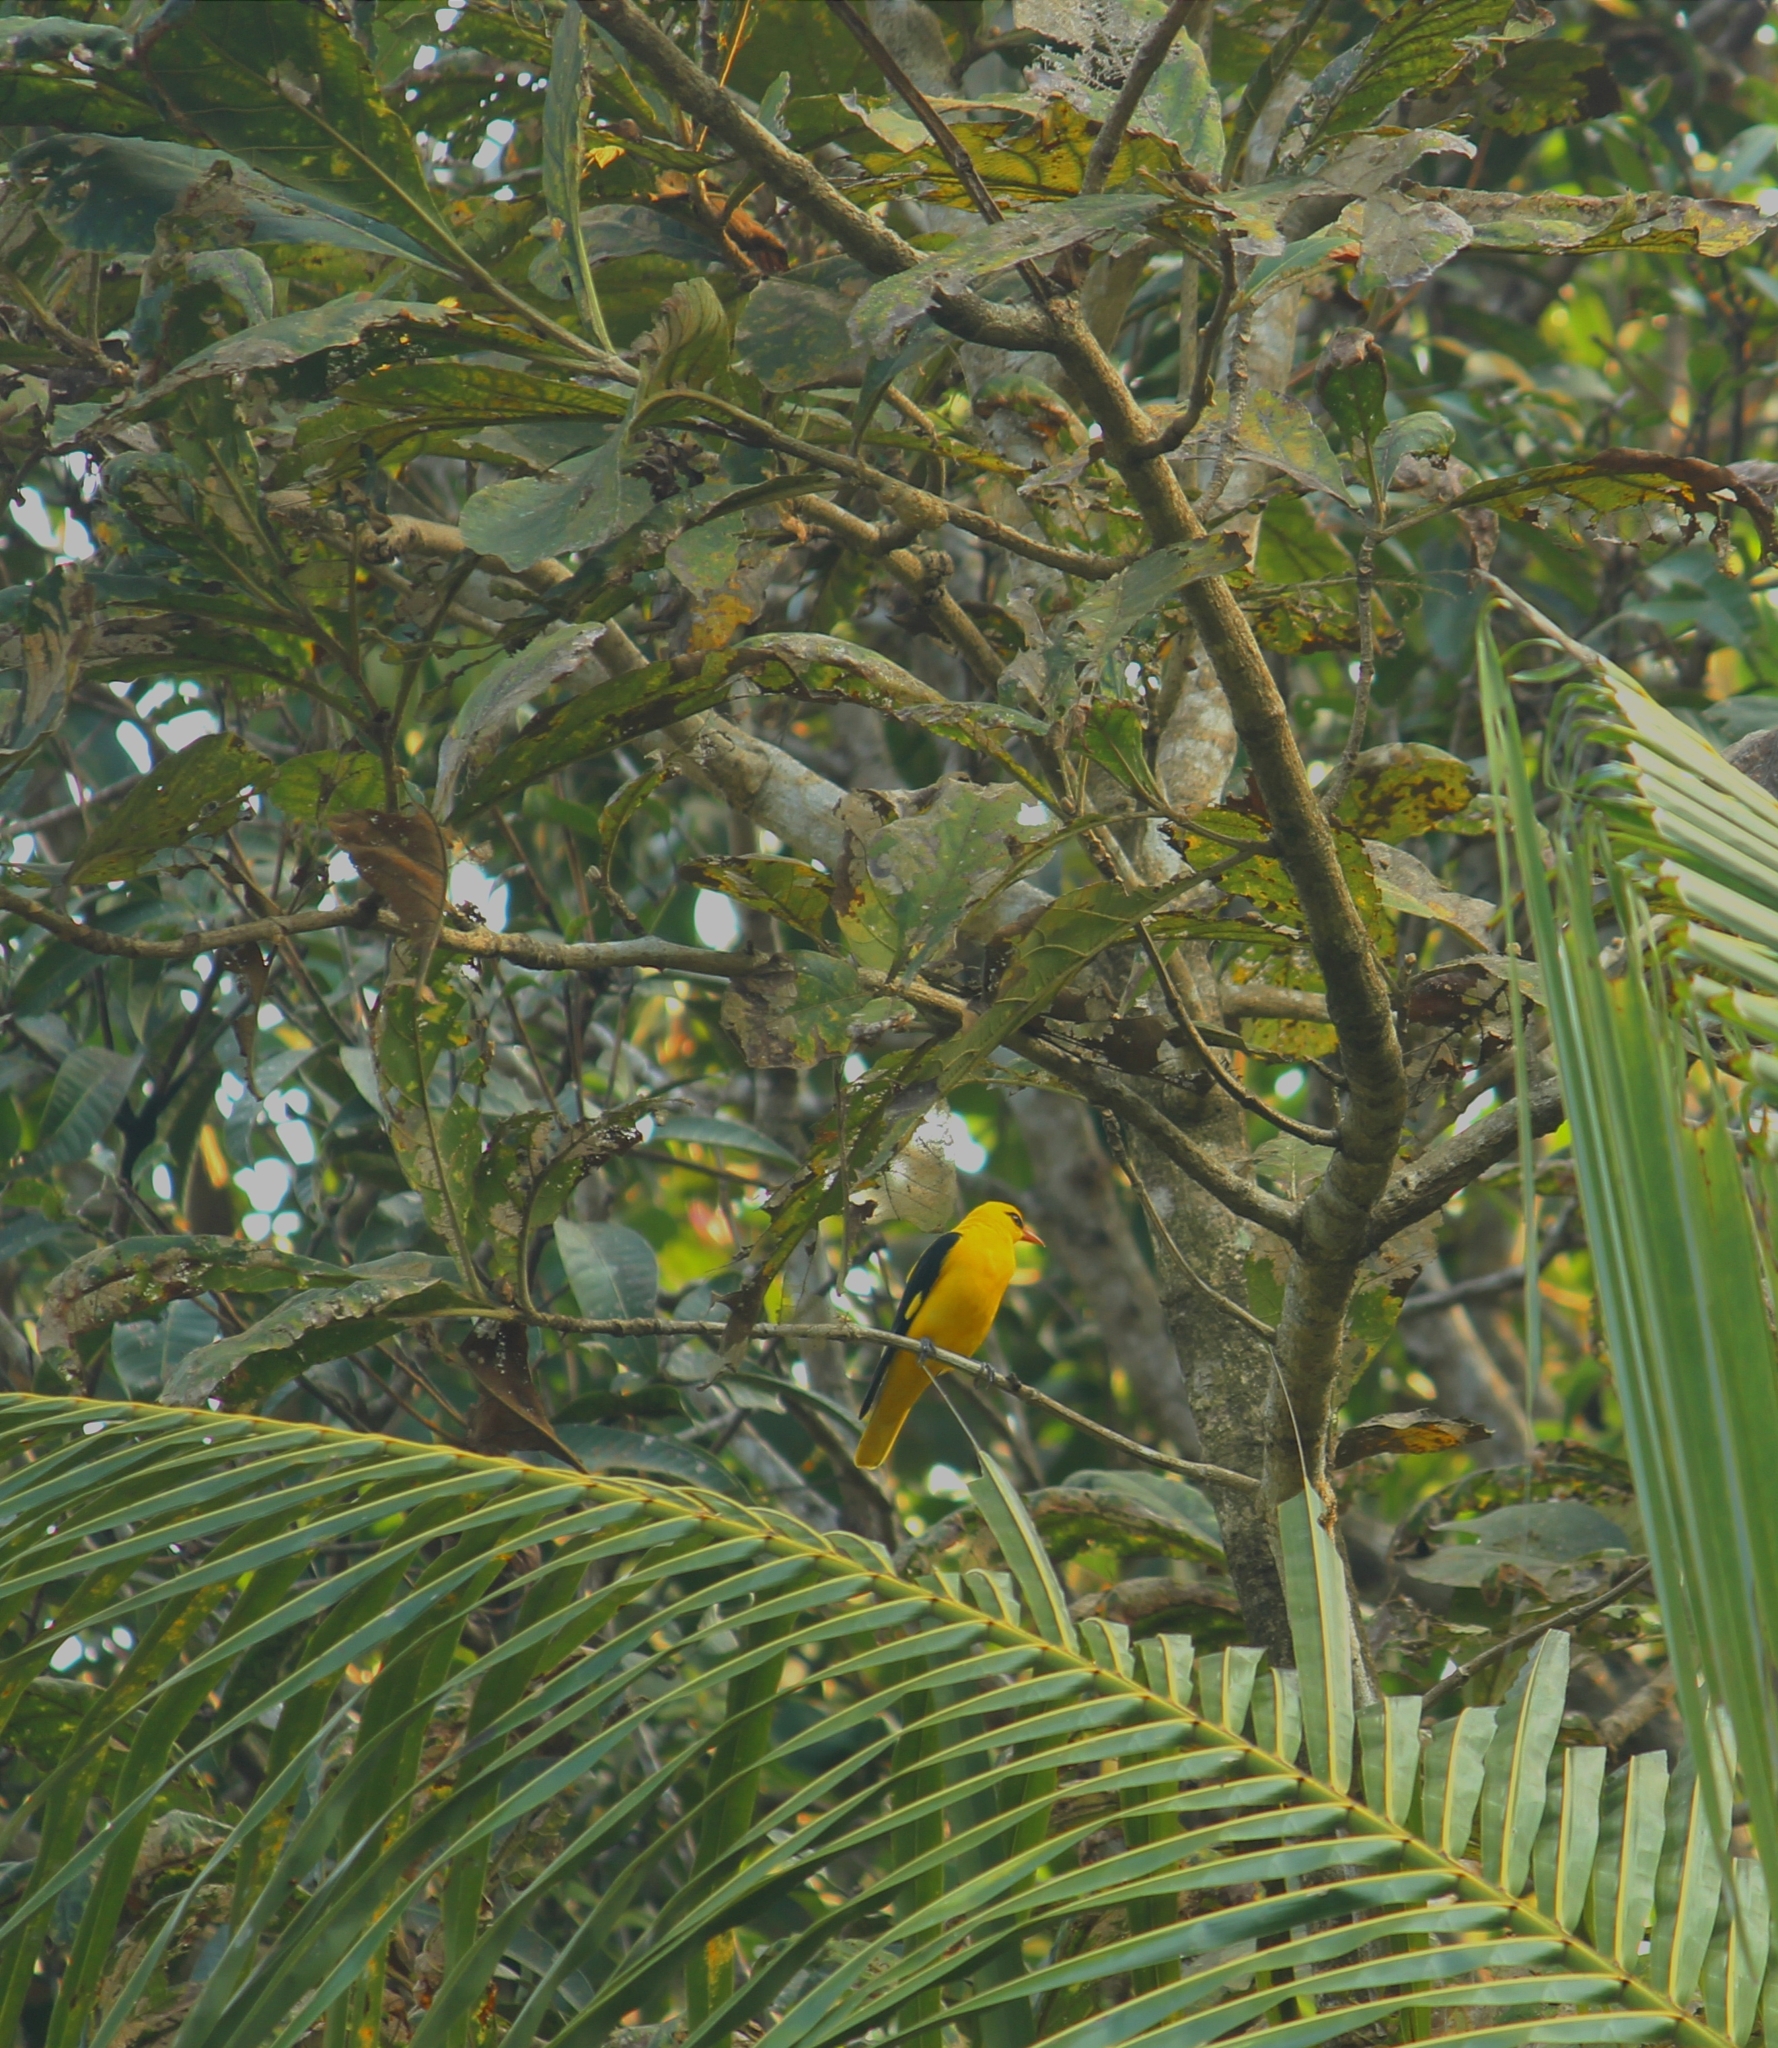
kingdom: Animalia
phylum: Chordata
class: Aves
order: Passeriformes
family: Oriolidae
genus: Oriolus
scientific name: Oriolus kundoo
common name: Indian golden oriole
